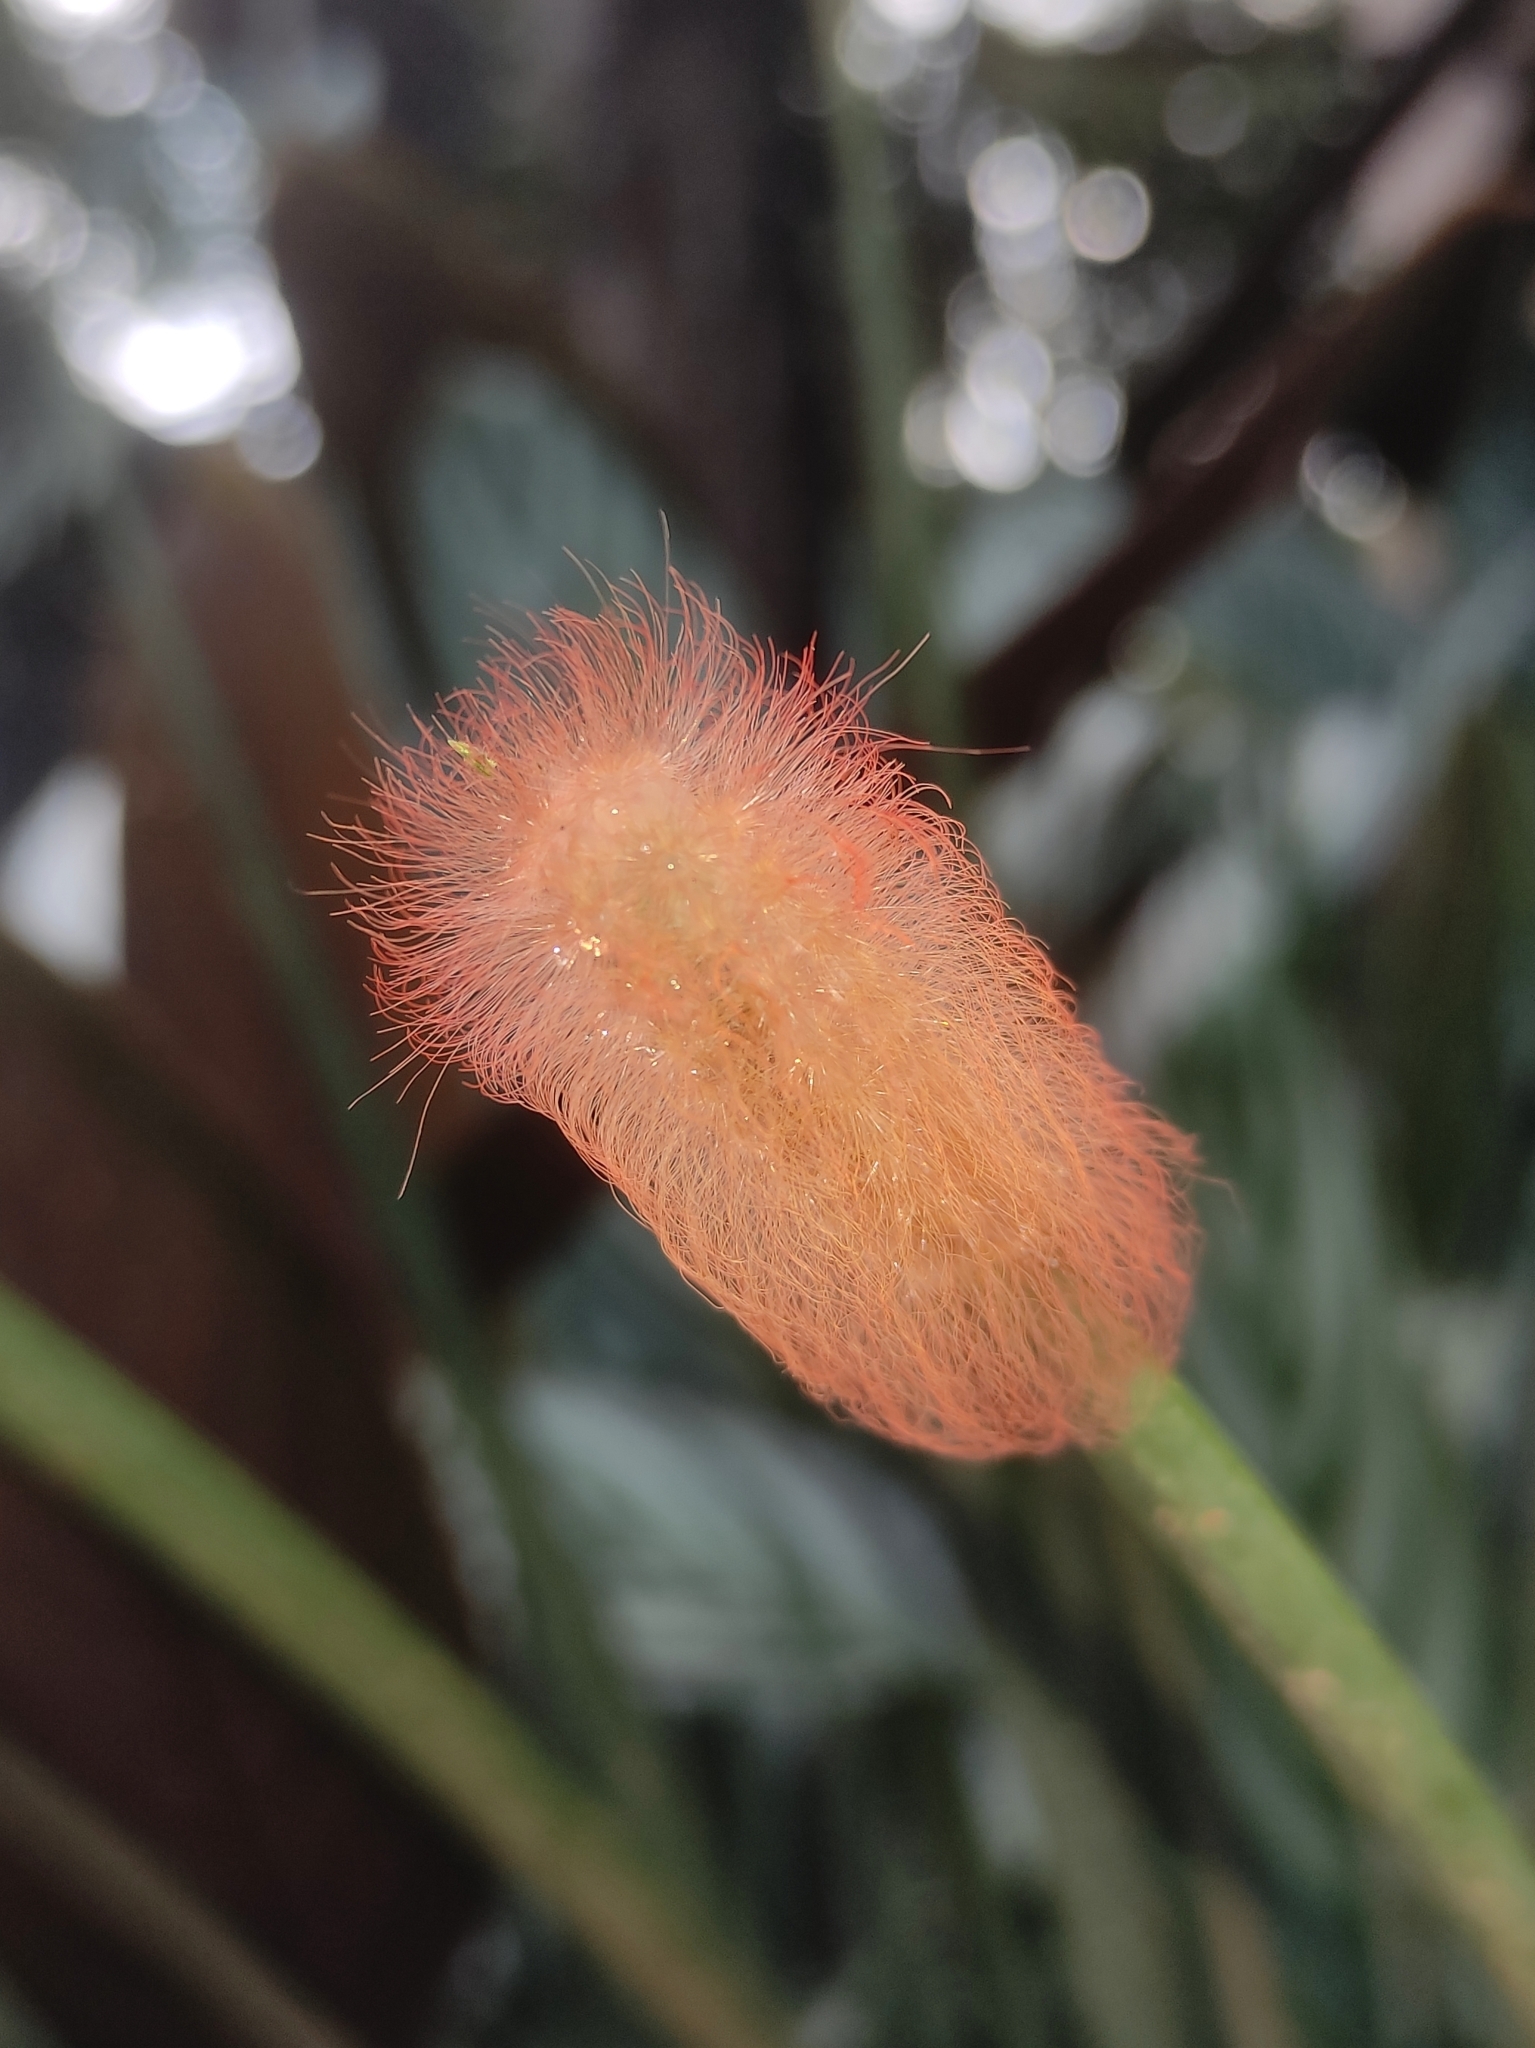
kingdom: Animalia
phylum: Arthropoda
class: Insecta
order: Lepidoptera
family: Megalopygidae
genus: Megalopyge
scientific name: Megalopyge albicollis
